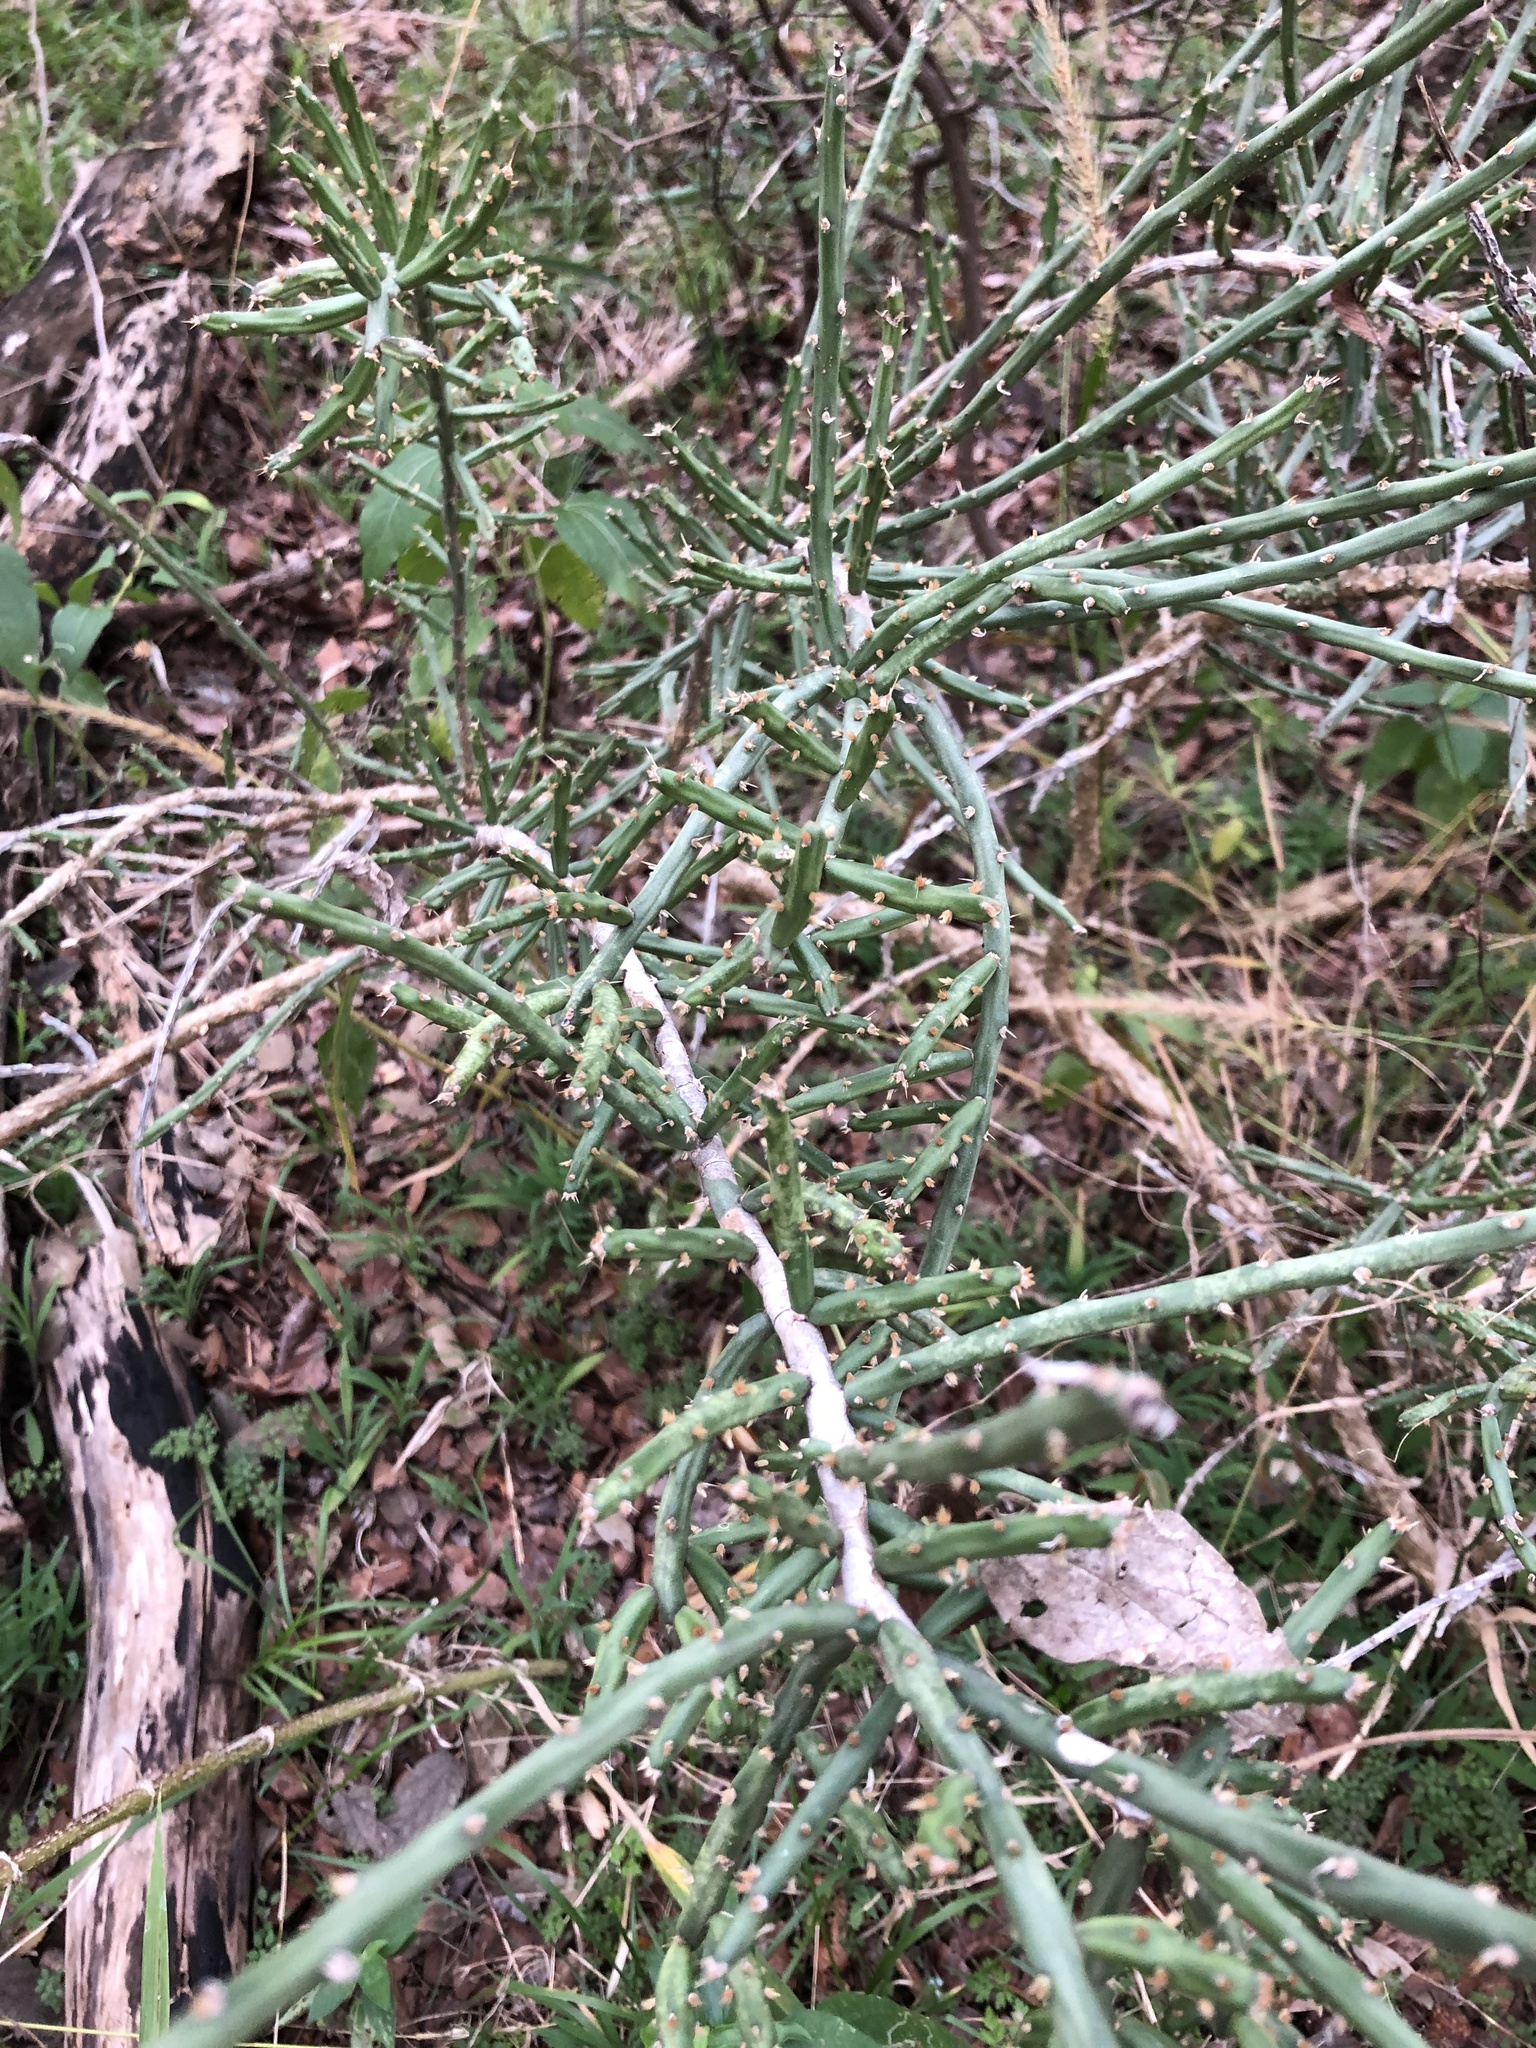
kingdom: Plantae
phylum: Tracheophyta
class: Magnoliopsida
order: Caryophyllales
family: Cactaceae
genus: Cylindropuntia
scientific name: Cylindropuntia leptocaulis
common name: Christmas cactus
